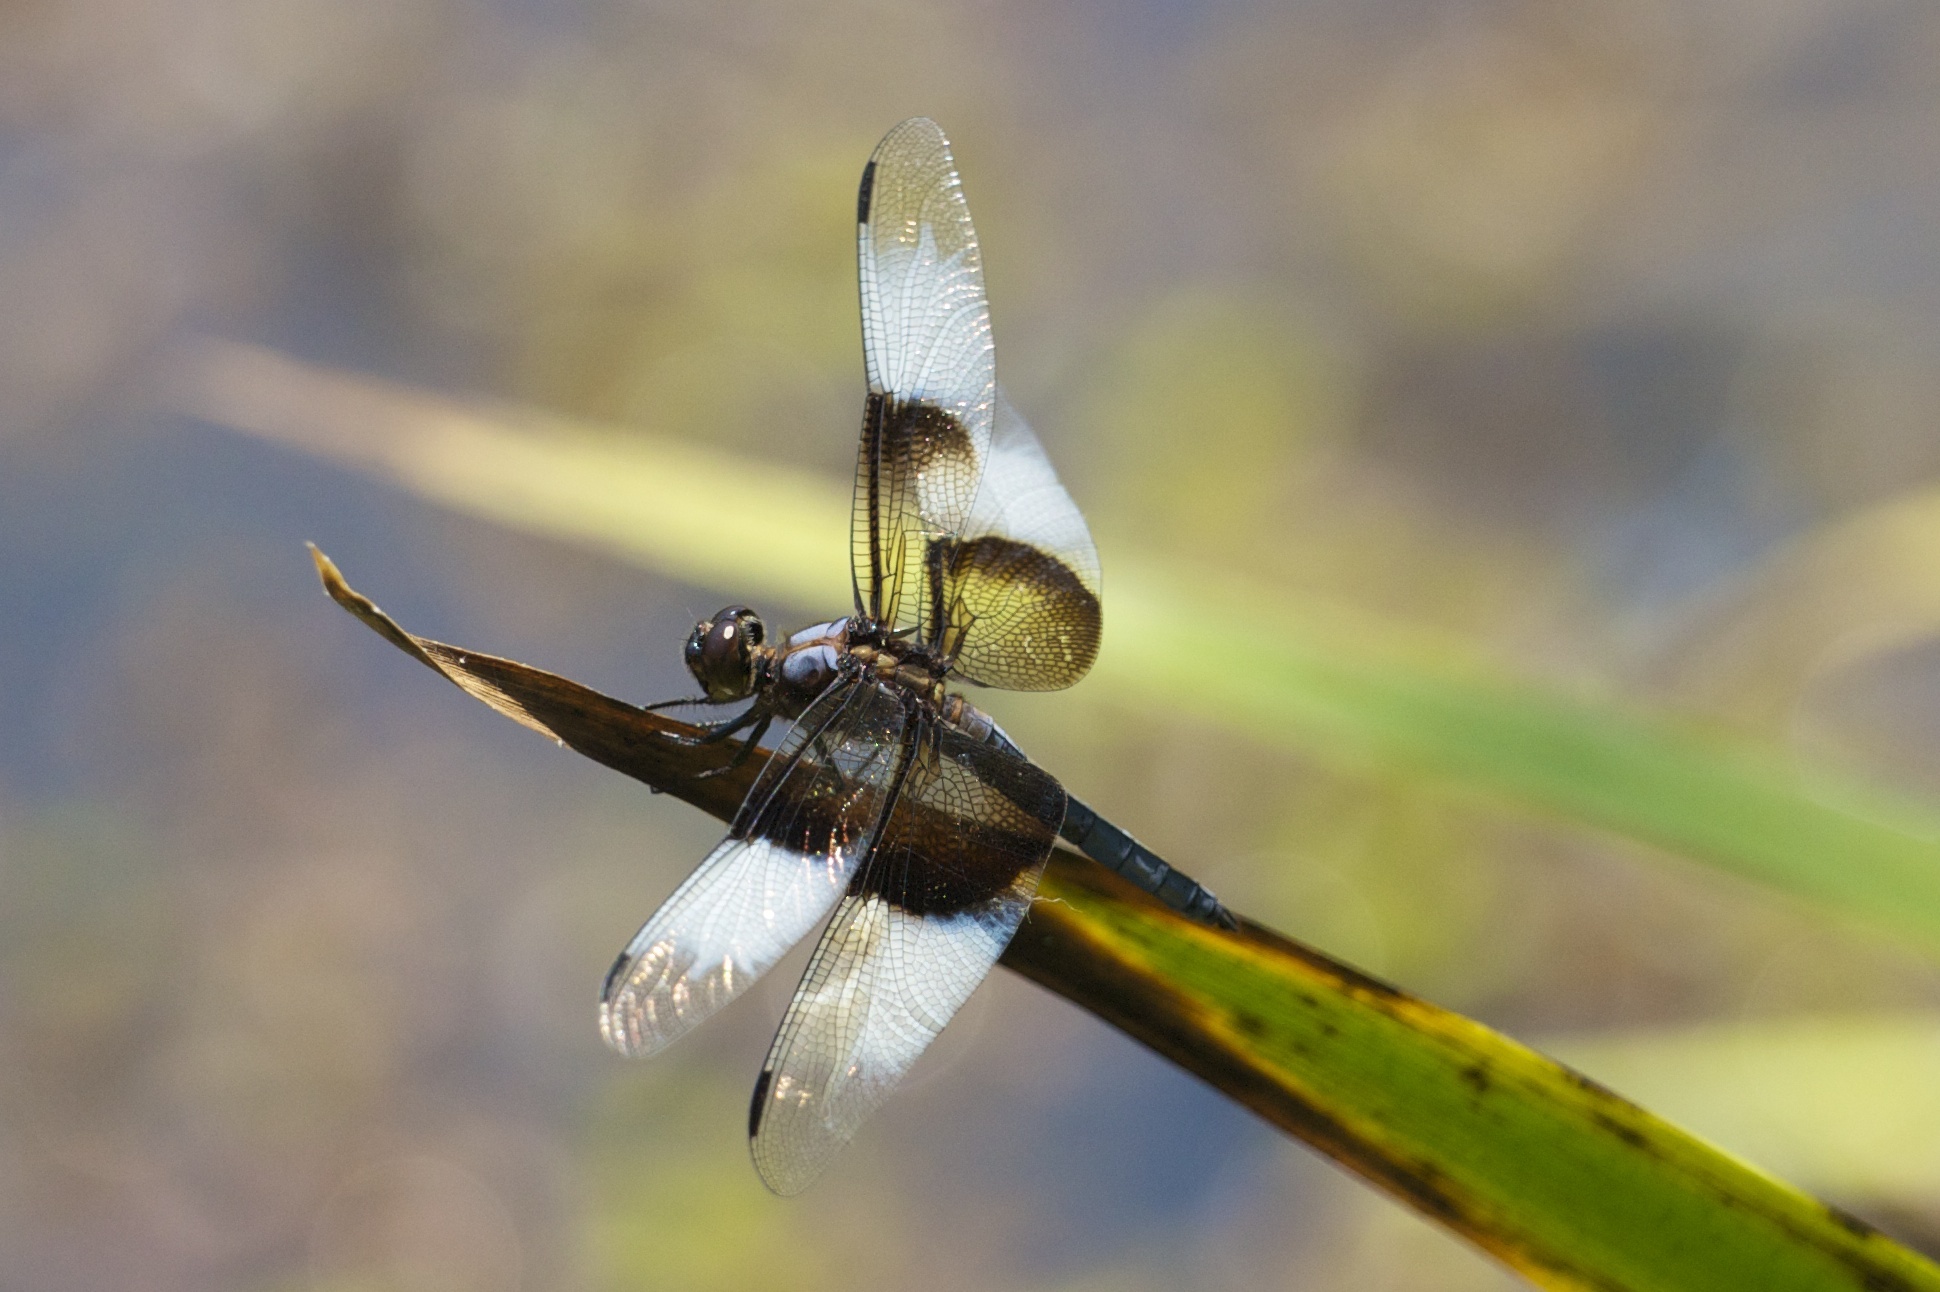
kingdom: Animalia
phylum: Arthropoda
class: Insecta
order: Odonata
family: Libellulidae
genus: Libellula
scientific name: Libellula luctuosa
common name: Widow skimmer
